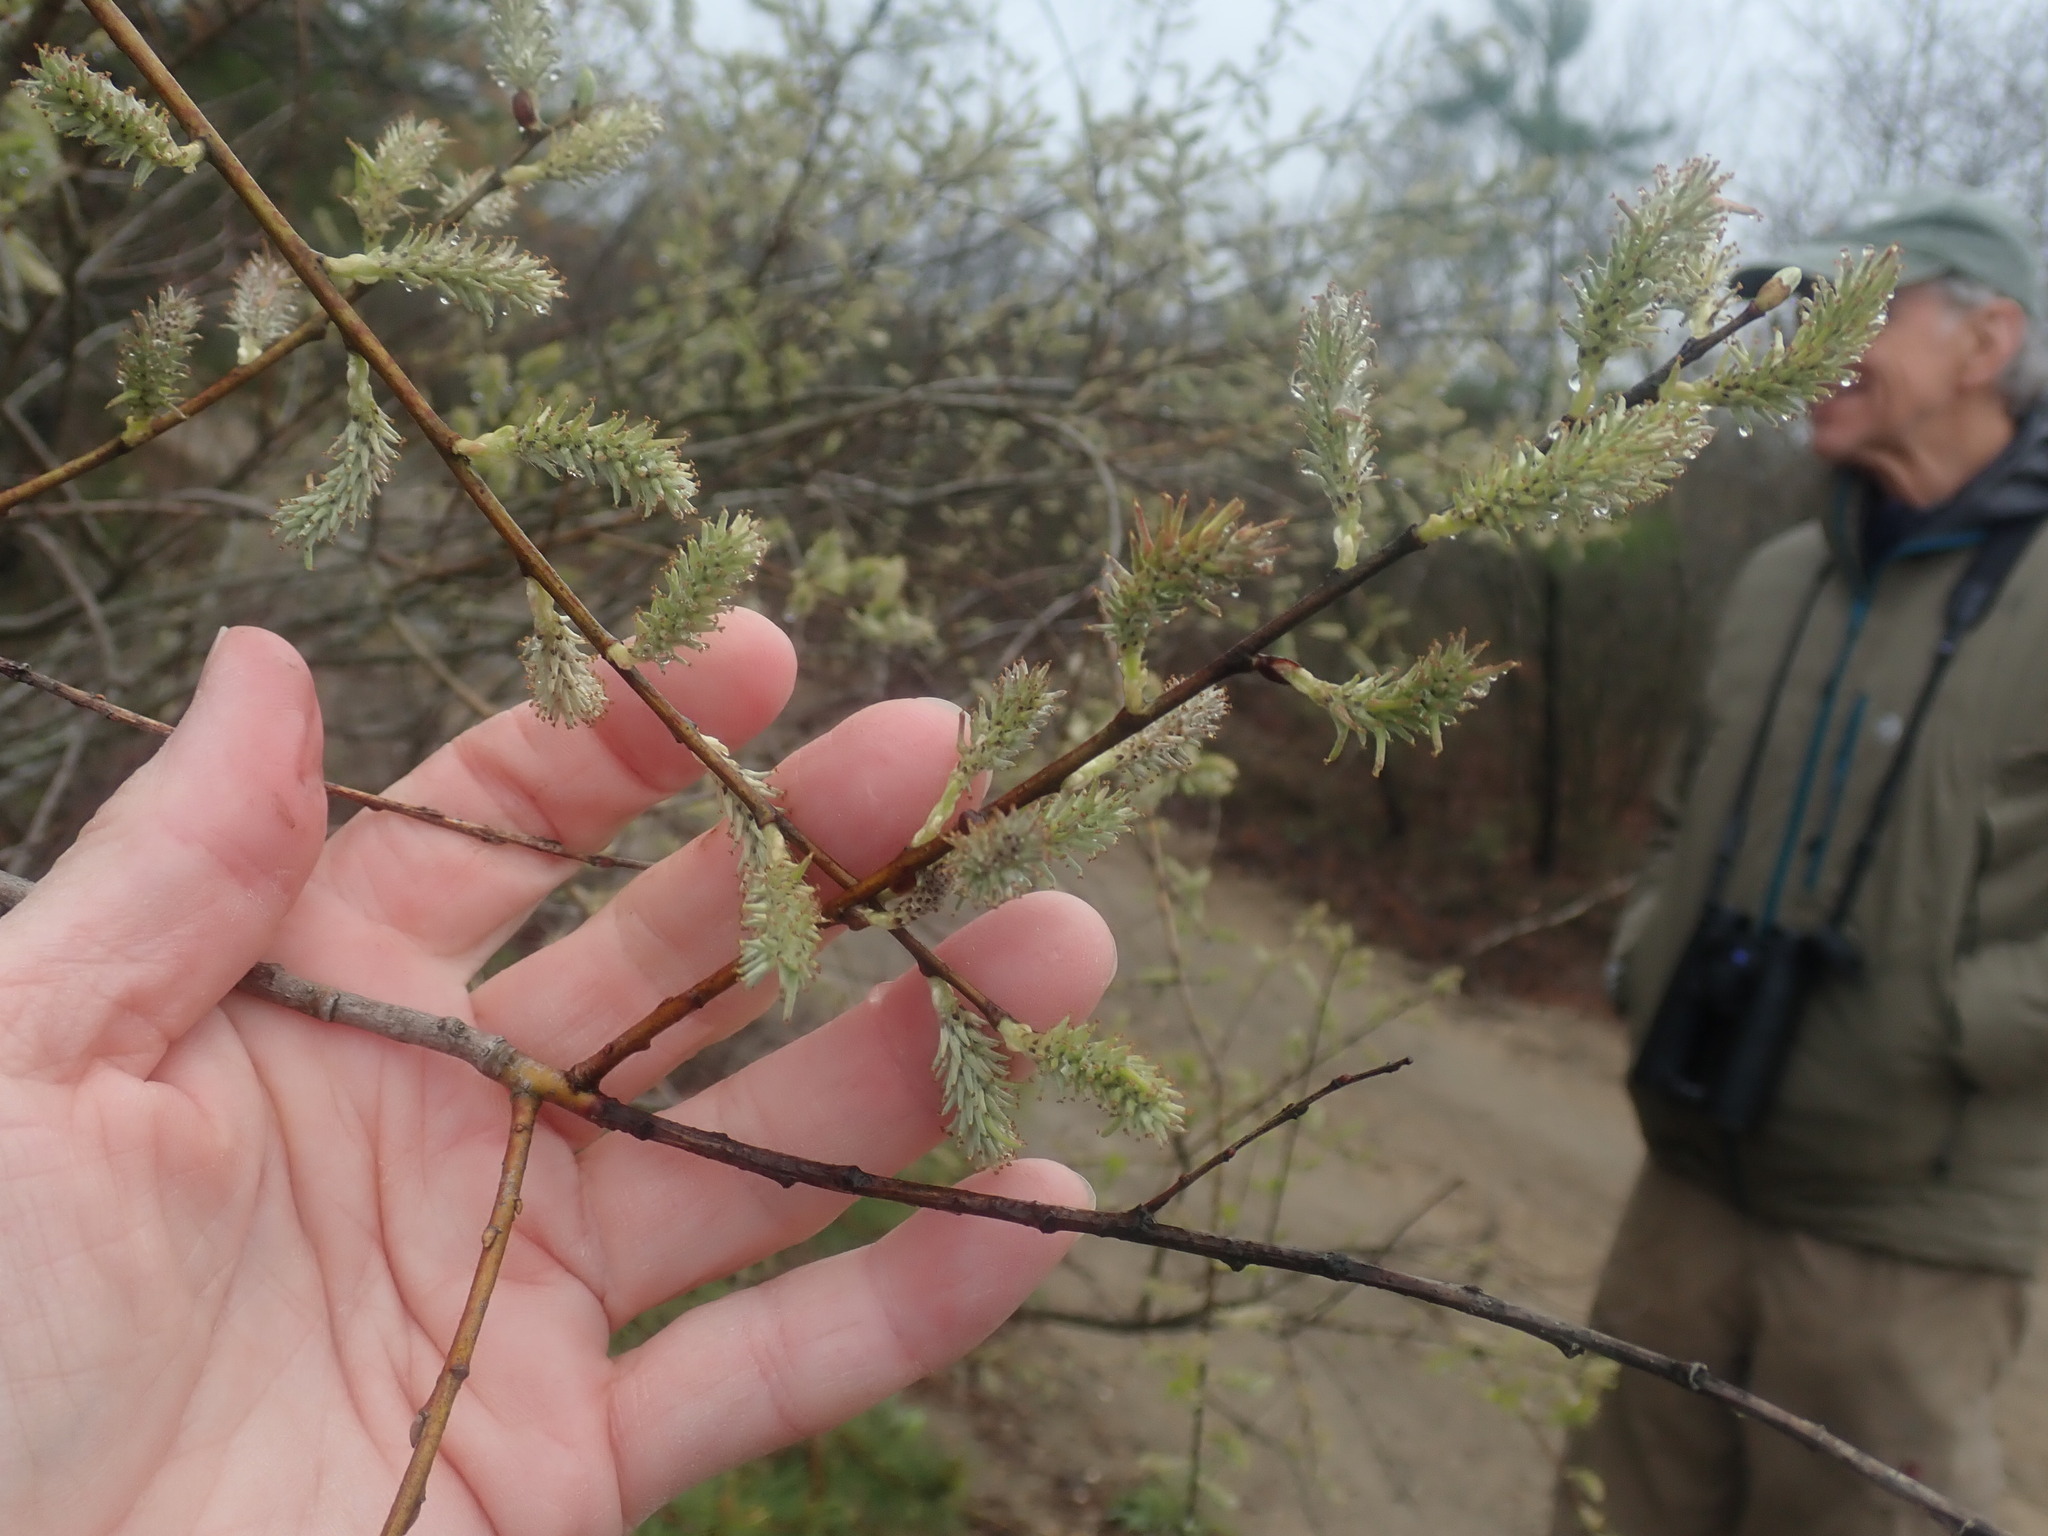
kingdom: Plantae
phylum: Tracheophyta
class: Magnoliopsida
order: Malpighiales
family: Salicaceae
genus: Salix
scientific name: Salix
